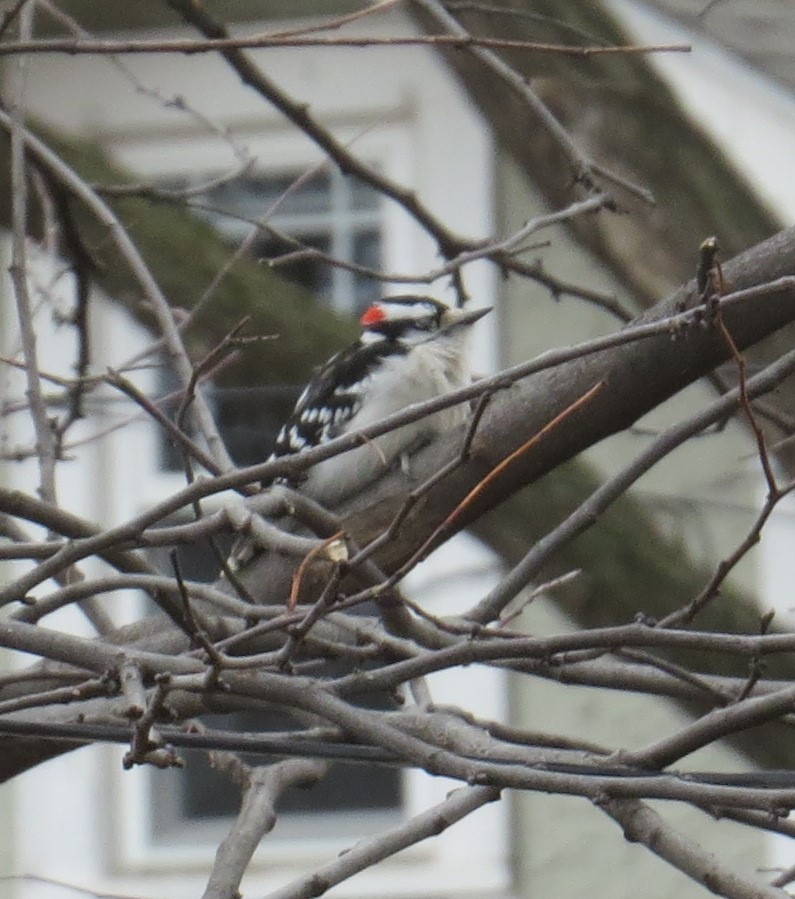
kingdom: Animalia
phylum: Chordata
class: Aves
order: Piciformes
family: Picidae
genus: Dryobates
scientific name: Dryobates pubescens
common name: Downy woodpecker
